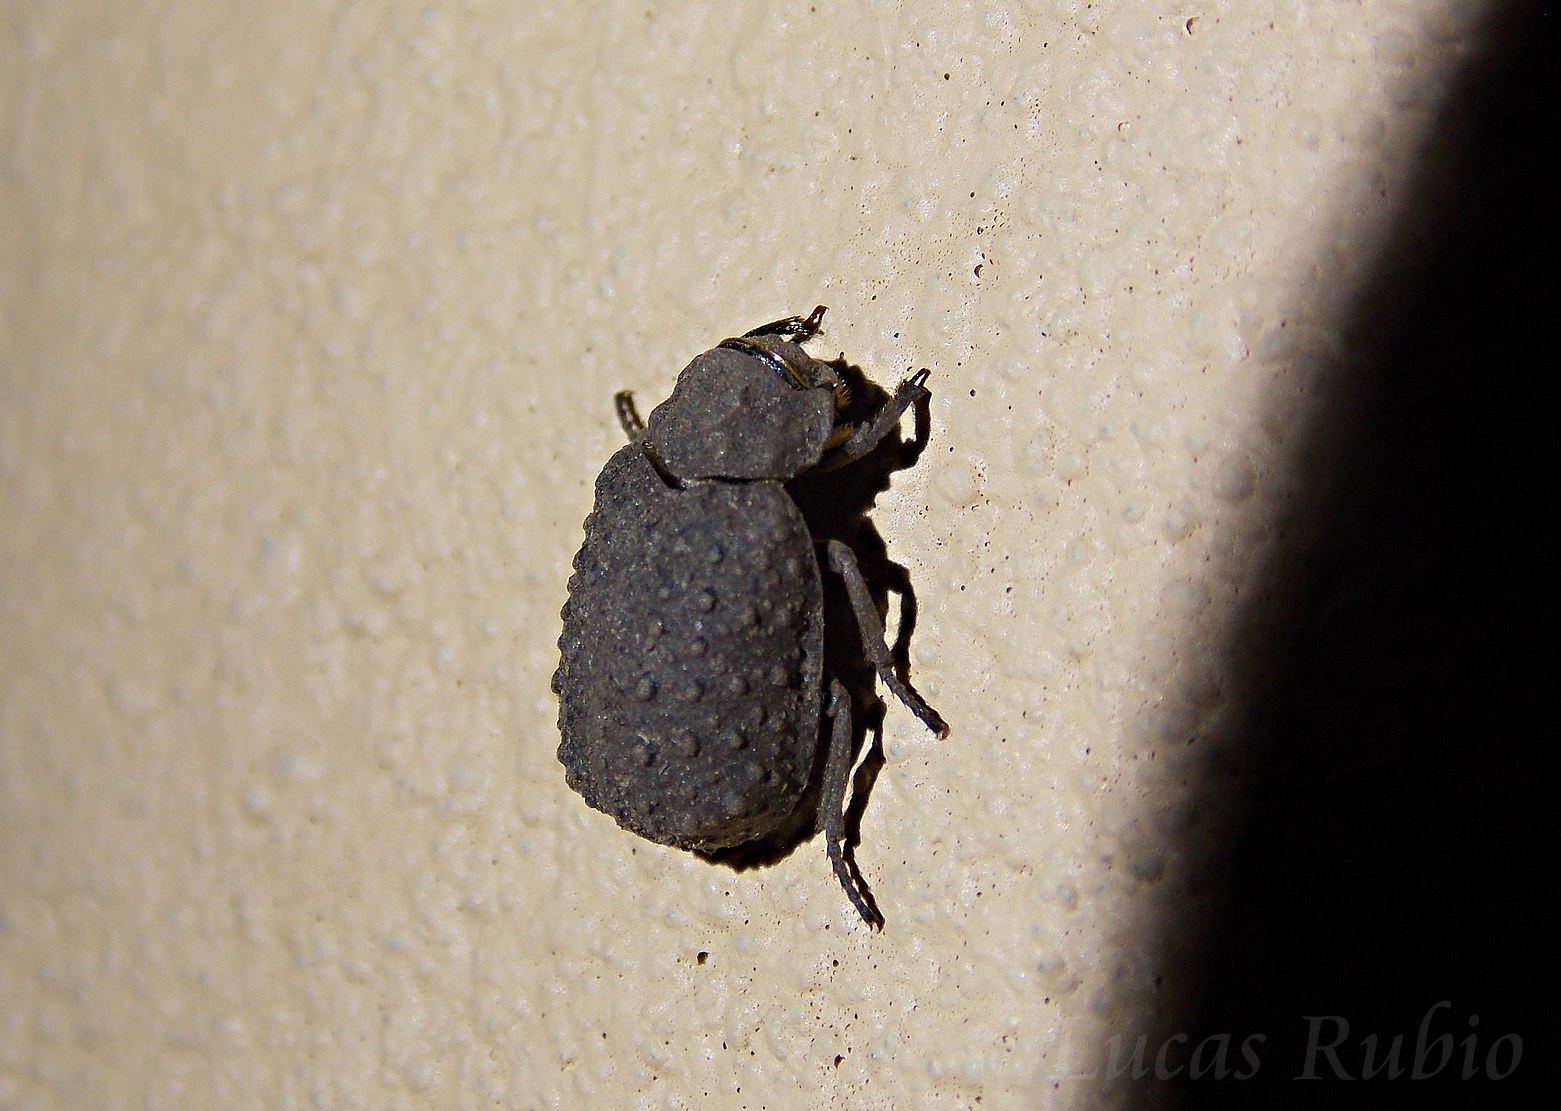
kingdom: Animalia
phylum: Arthropoda
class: Insecta
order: Coleoptera
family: Trogidae
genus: Polynoncus
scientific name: Polynoncus pilularius
